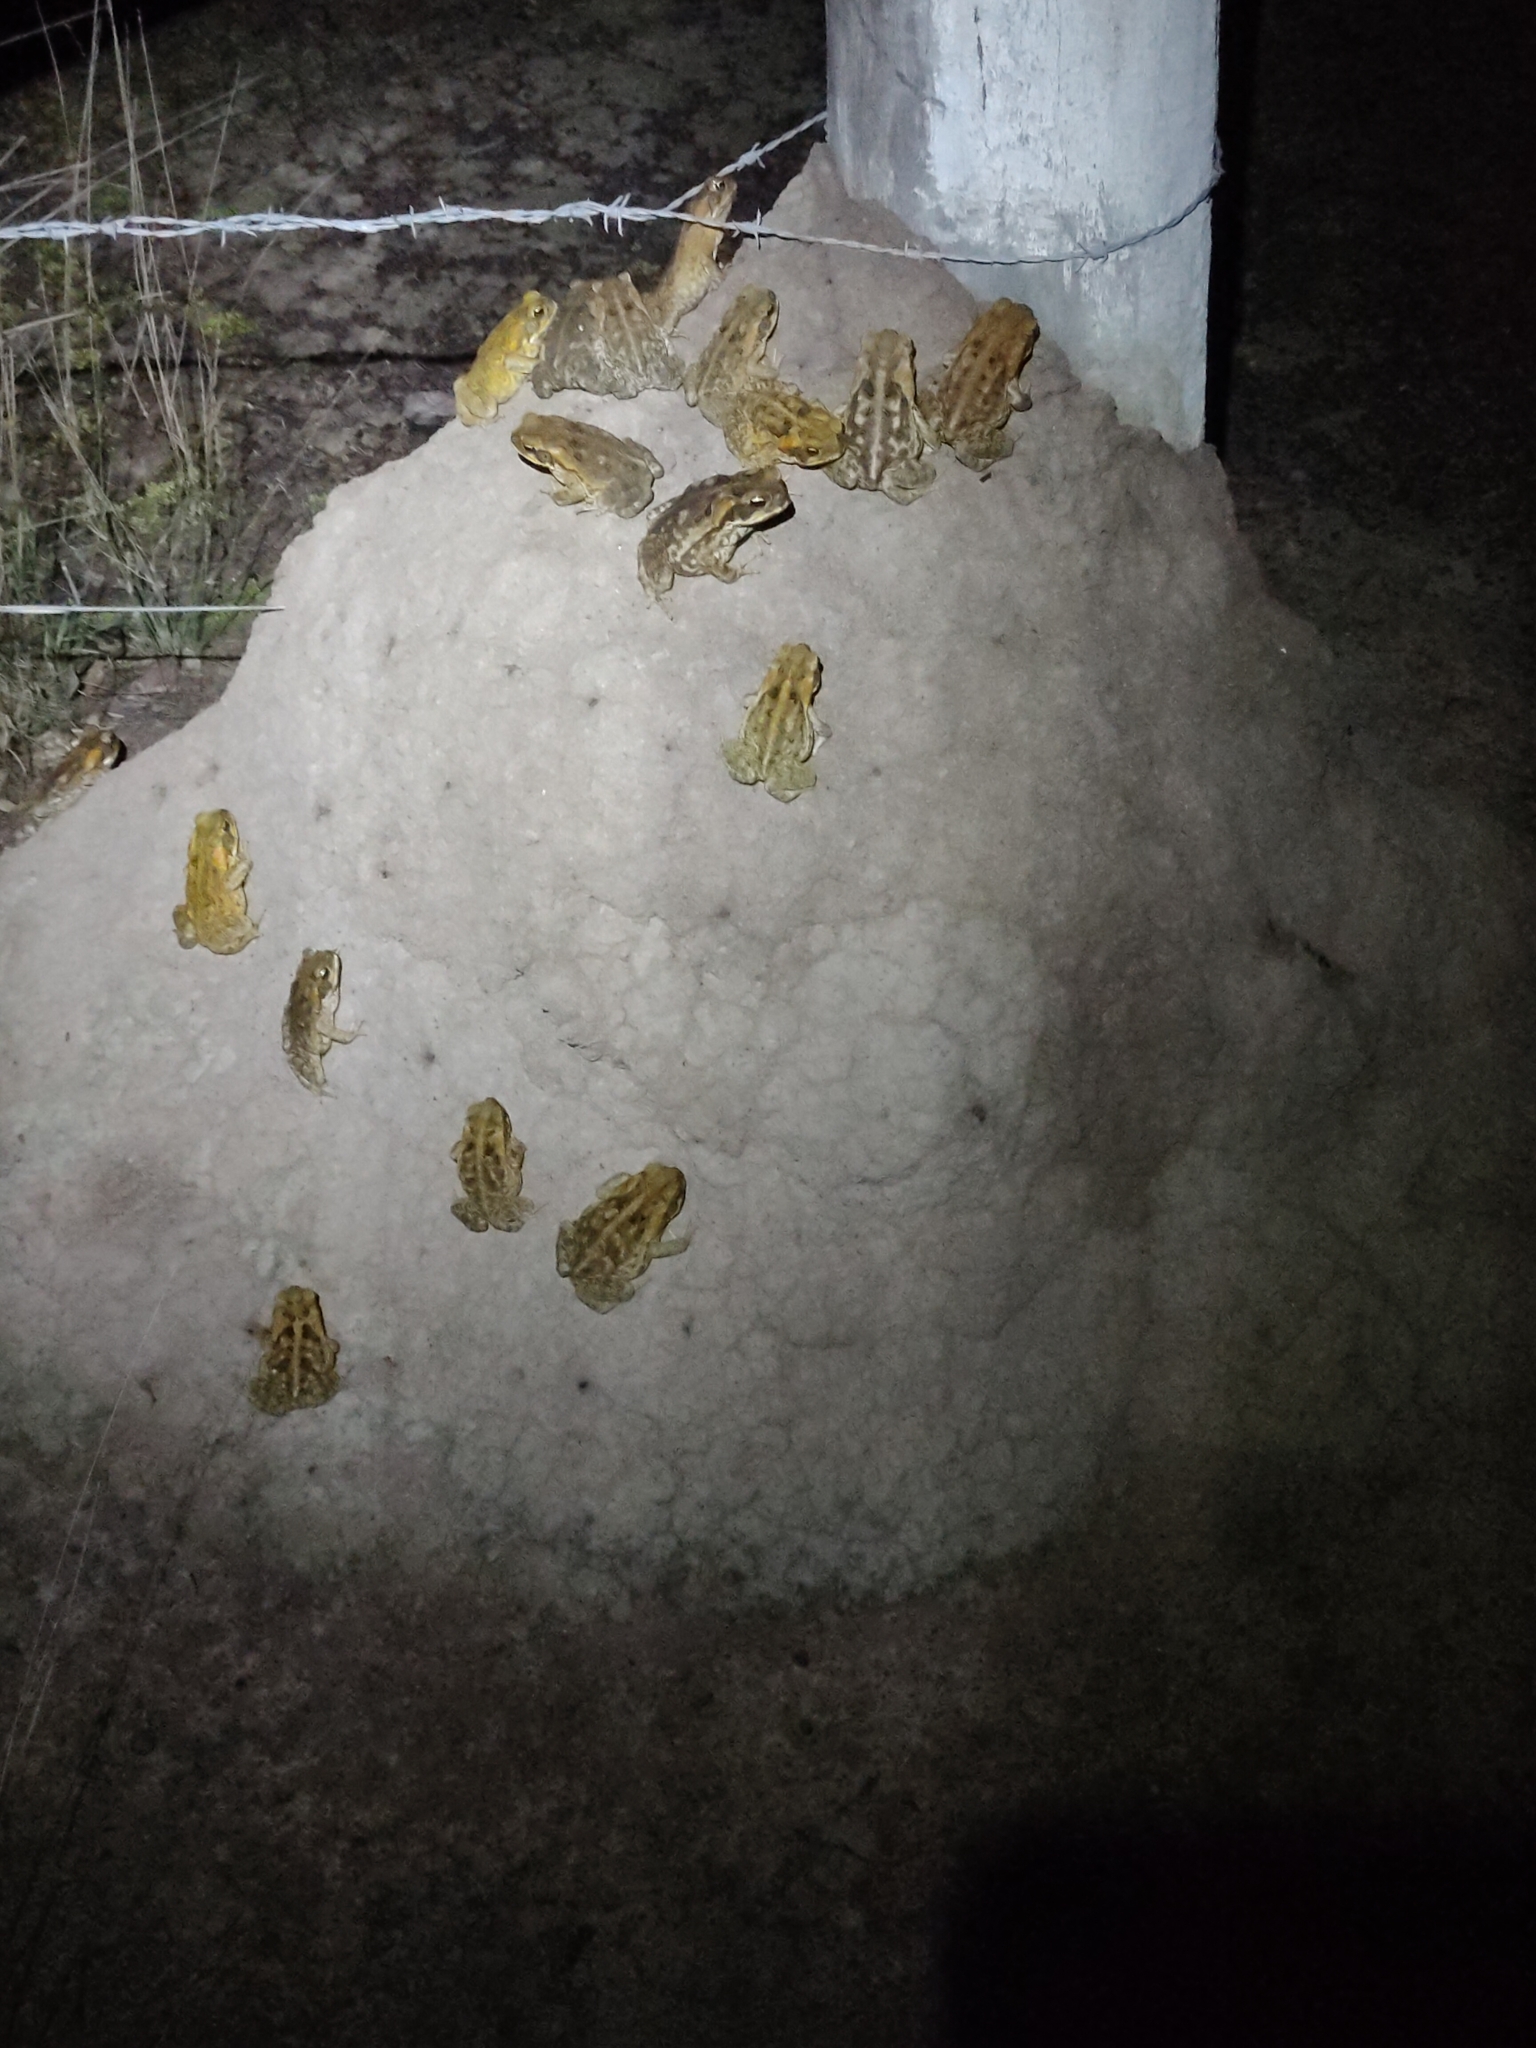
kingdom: Animalia
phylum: Chordata
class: Amphibia
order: Anura
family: Bufonidae
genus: Rhinella
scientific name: Rhinella marina
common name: Cane toad
